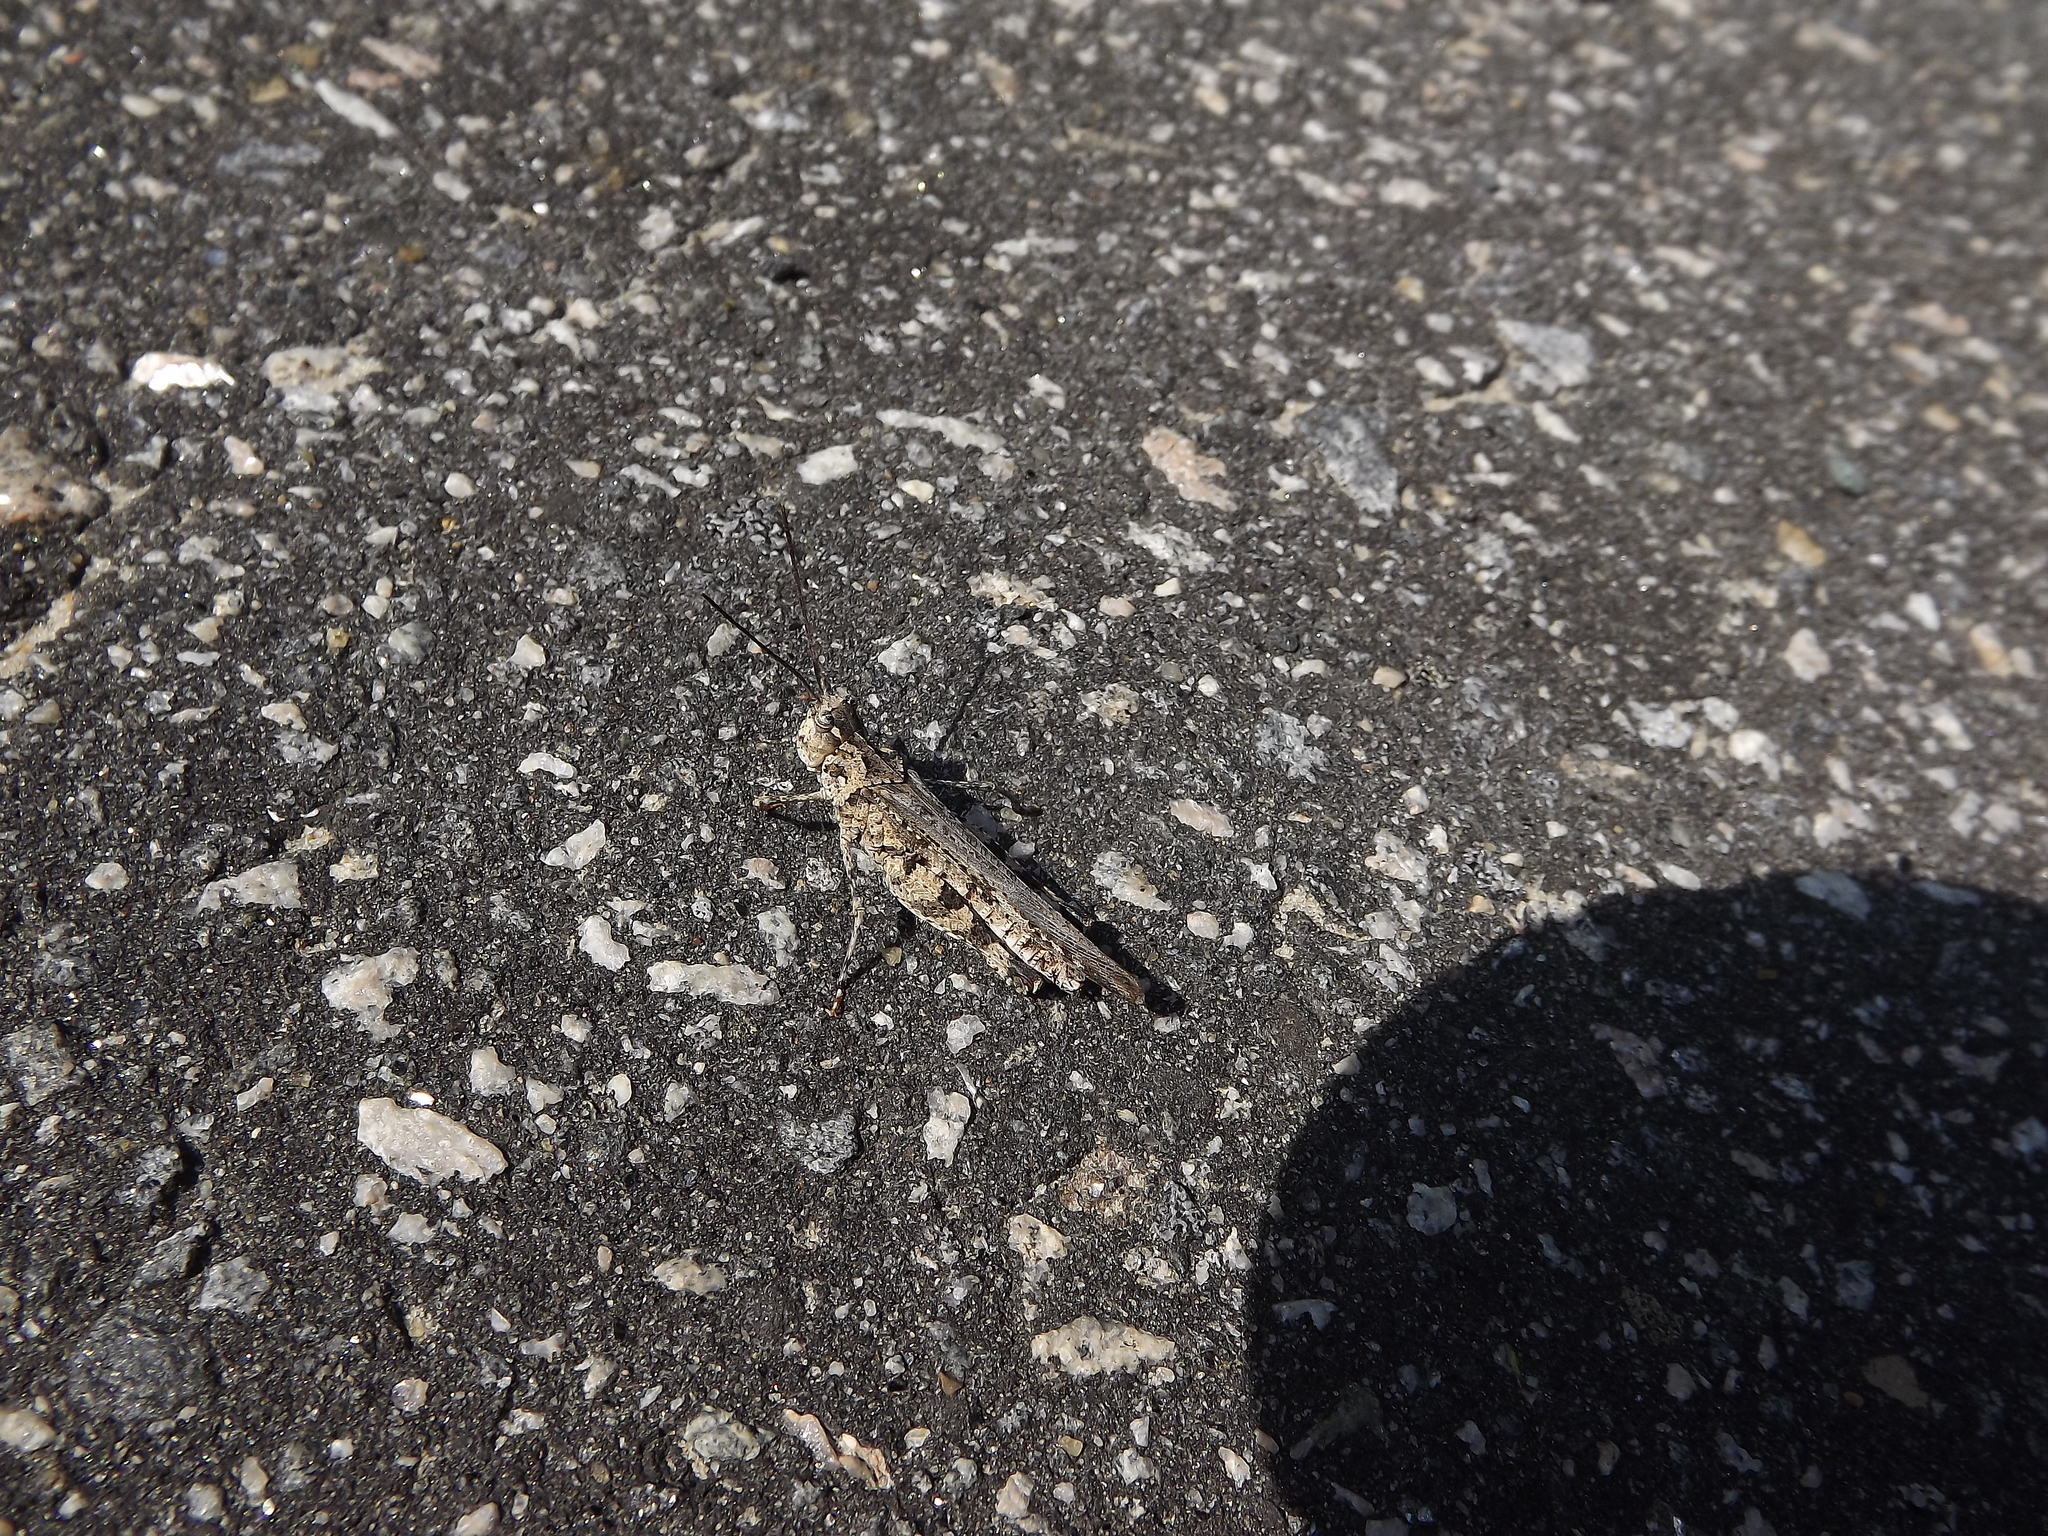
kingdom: Animalia
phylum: Arthropoda
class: Insecta
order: Orthoptera
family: Acrididae
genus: Psinidia
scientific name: Psinidia fenestralis
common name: Long-horned locust
